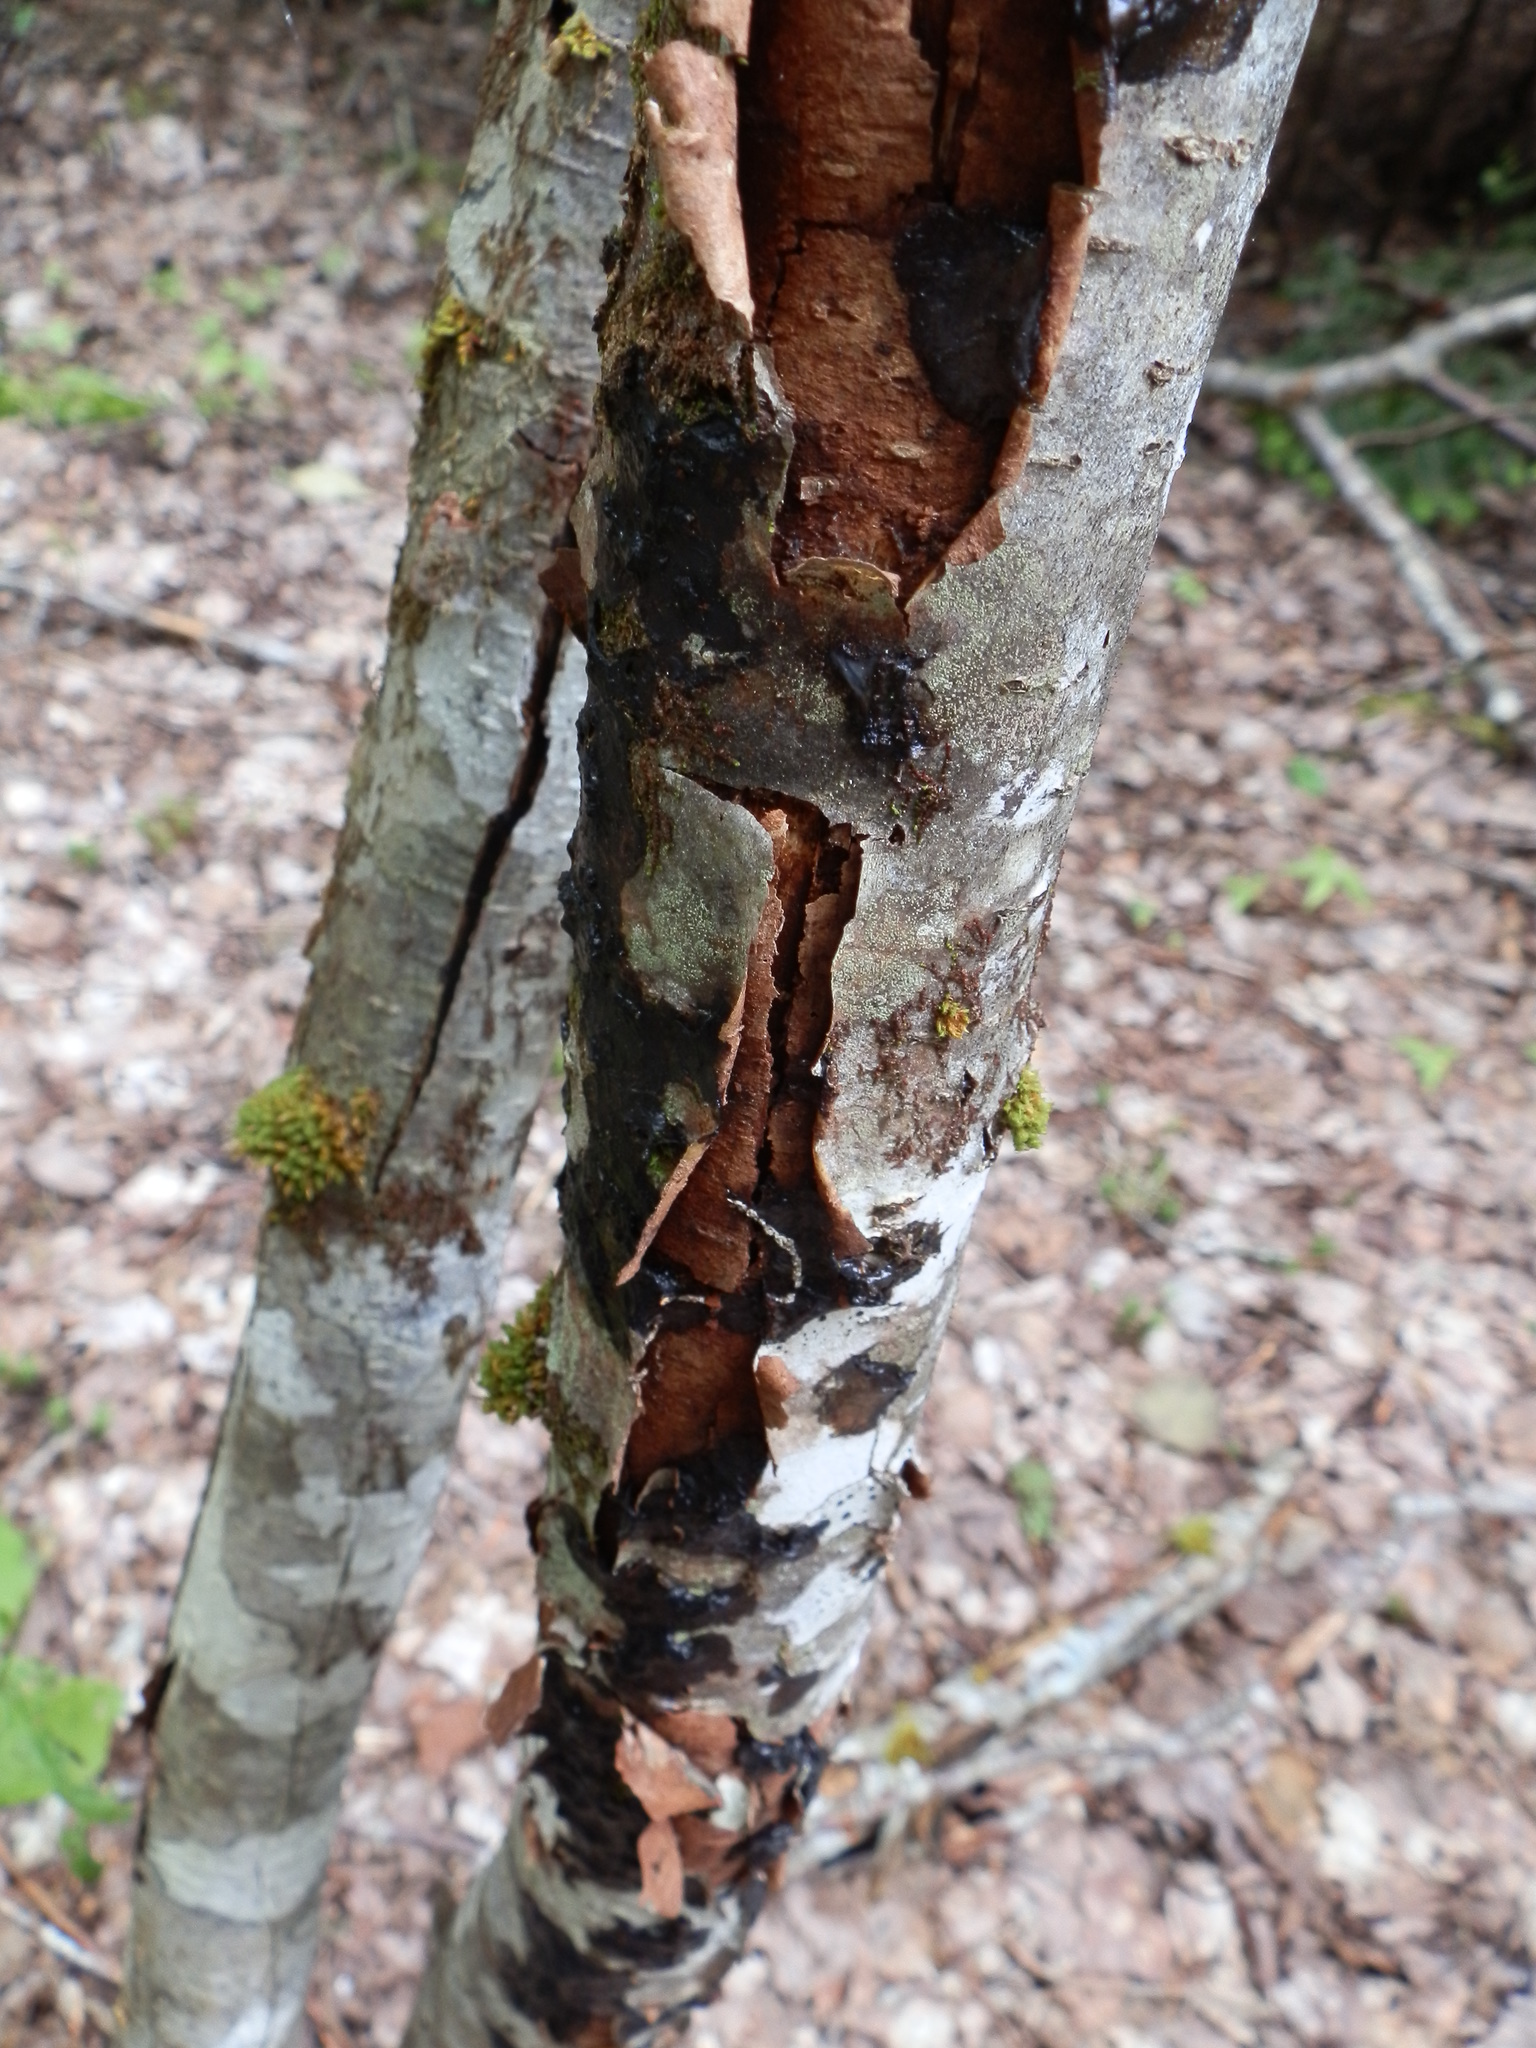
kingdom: Fungi
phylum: Basidiomycota
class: Agaricomycetes
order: Auriculariales
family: Auriculariaceae
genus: Exidia
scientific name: Exidia glandulosa
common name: Witches' butter
